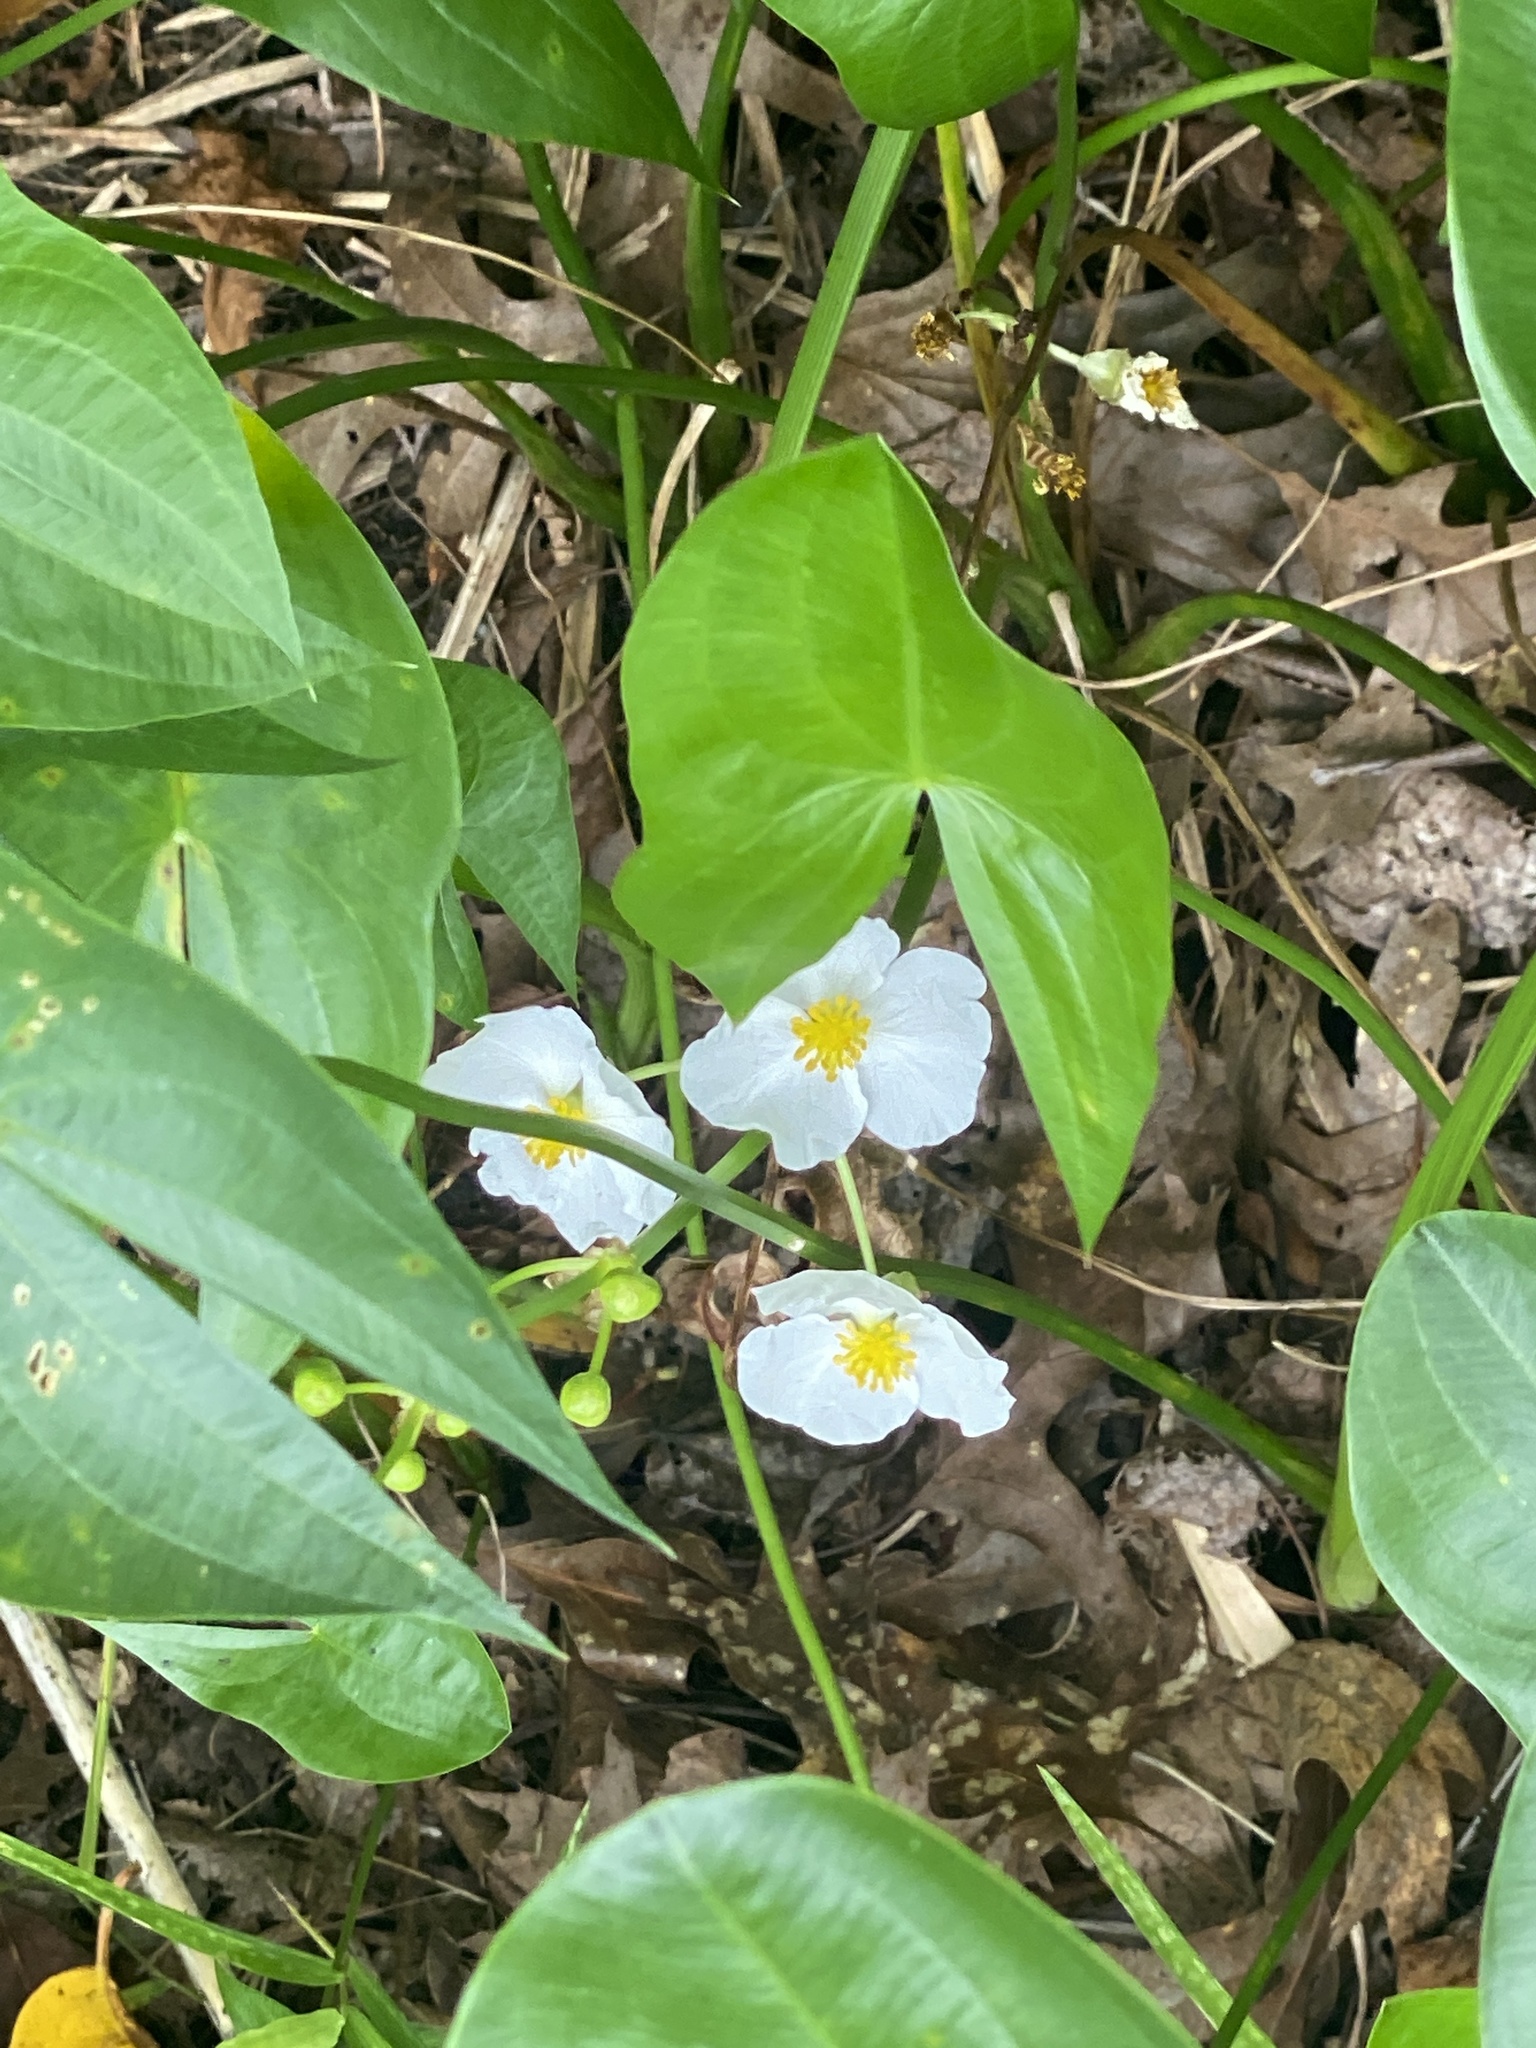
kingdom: Plantae
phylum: Tracheophyta
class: Liliopsida
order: Alismatales
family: Alismataceae
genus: Sagittaria
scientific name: Sagittaria latifolia
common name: Duck-potato
